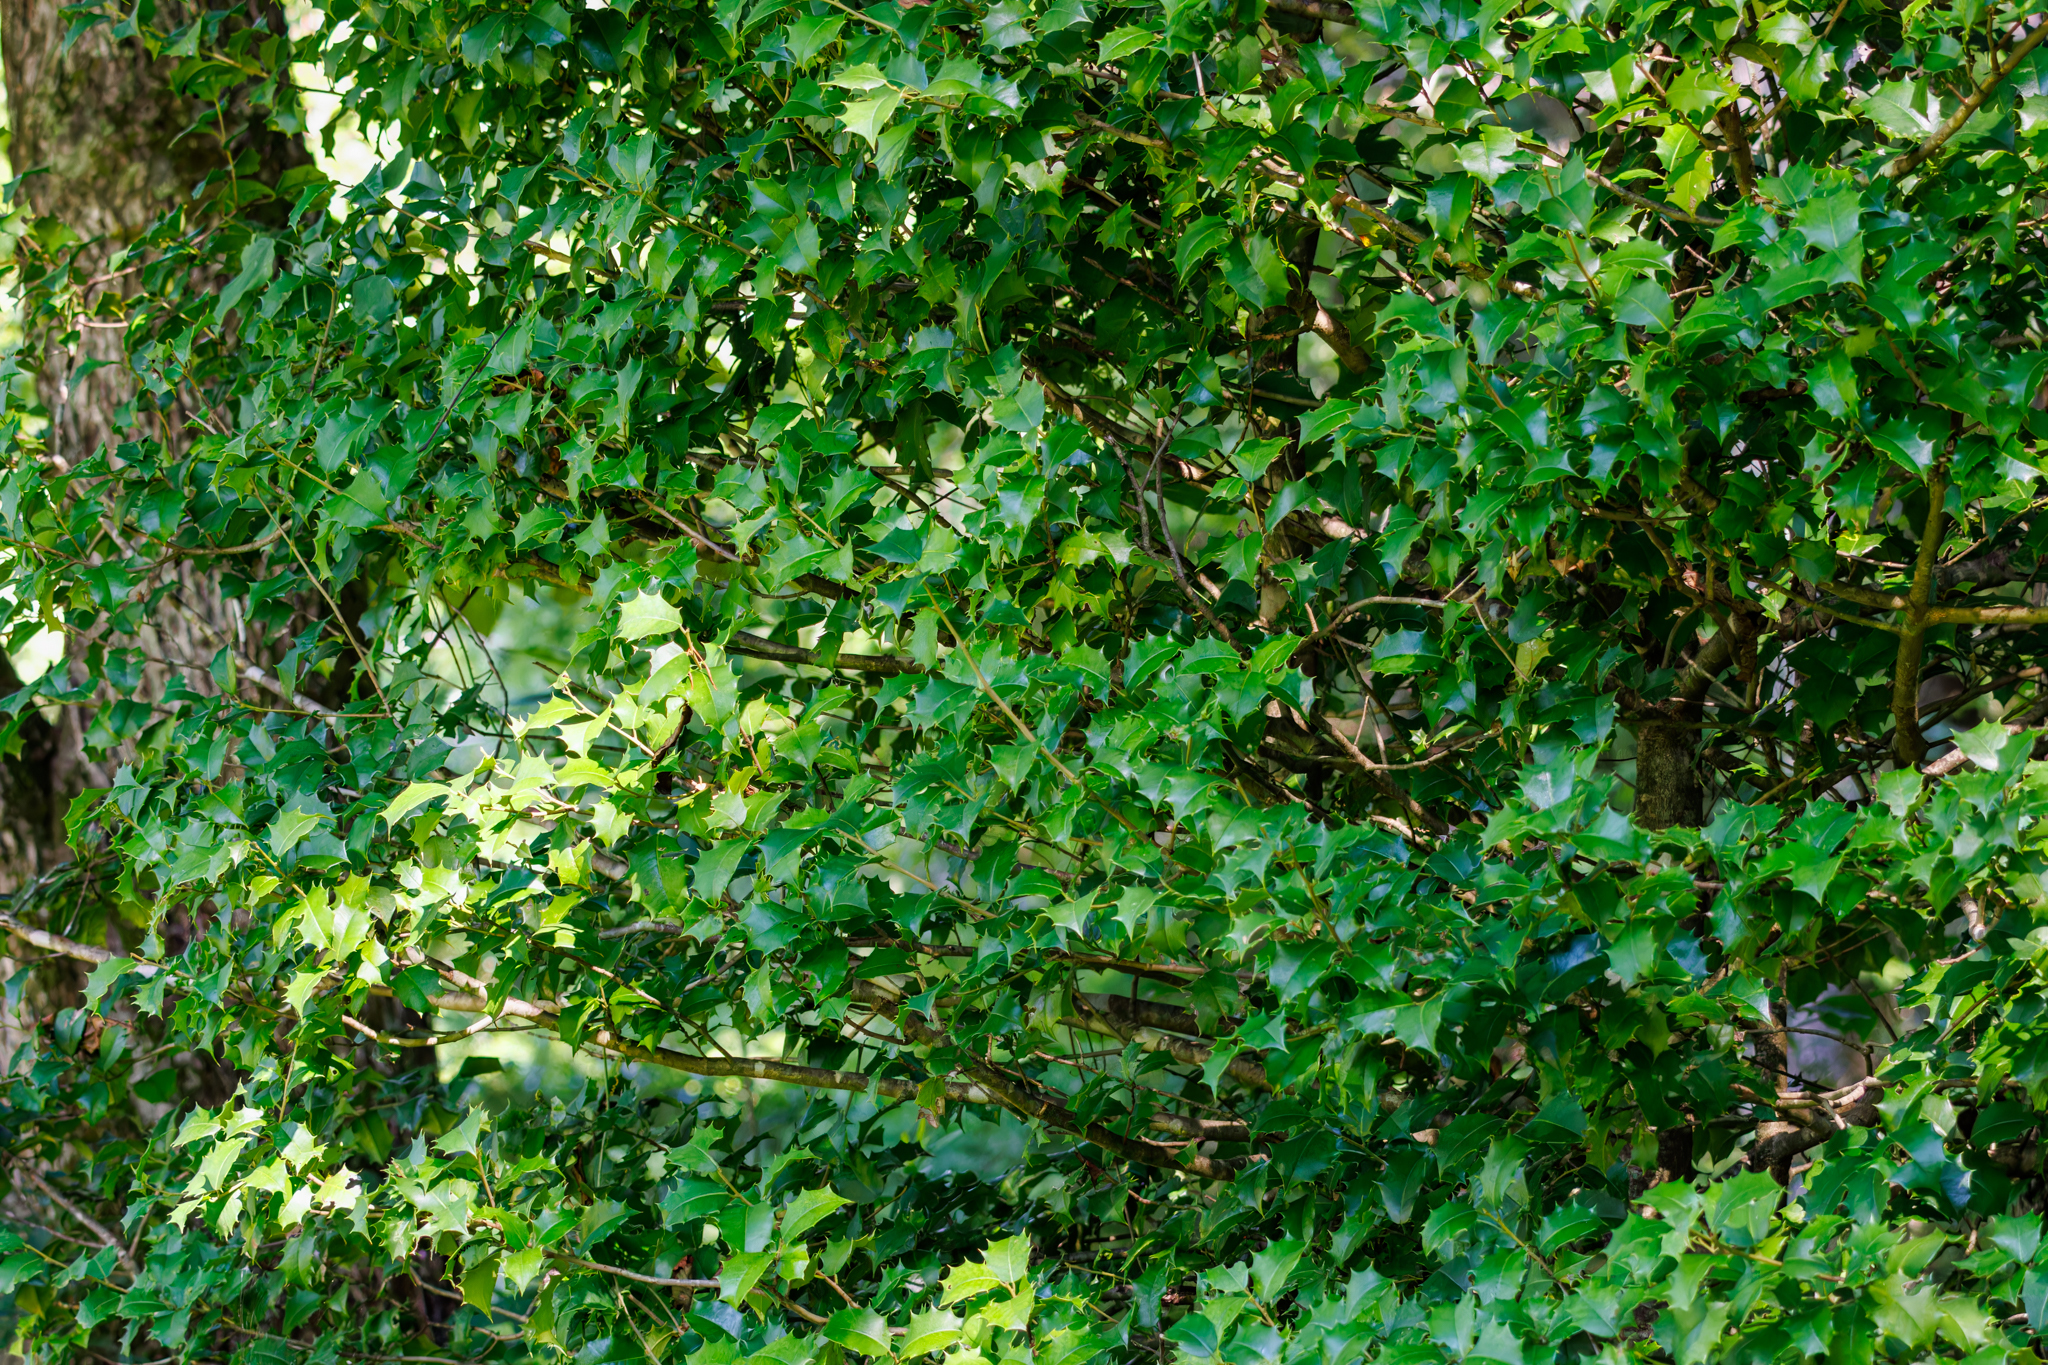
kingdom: Plantae
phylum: Tracheophyta
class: Magnoliopsida
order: Aquifoliales
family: Aquifoliaceae
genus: Ilex
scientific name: Ilex opaca
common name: American holly
